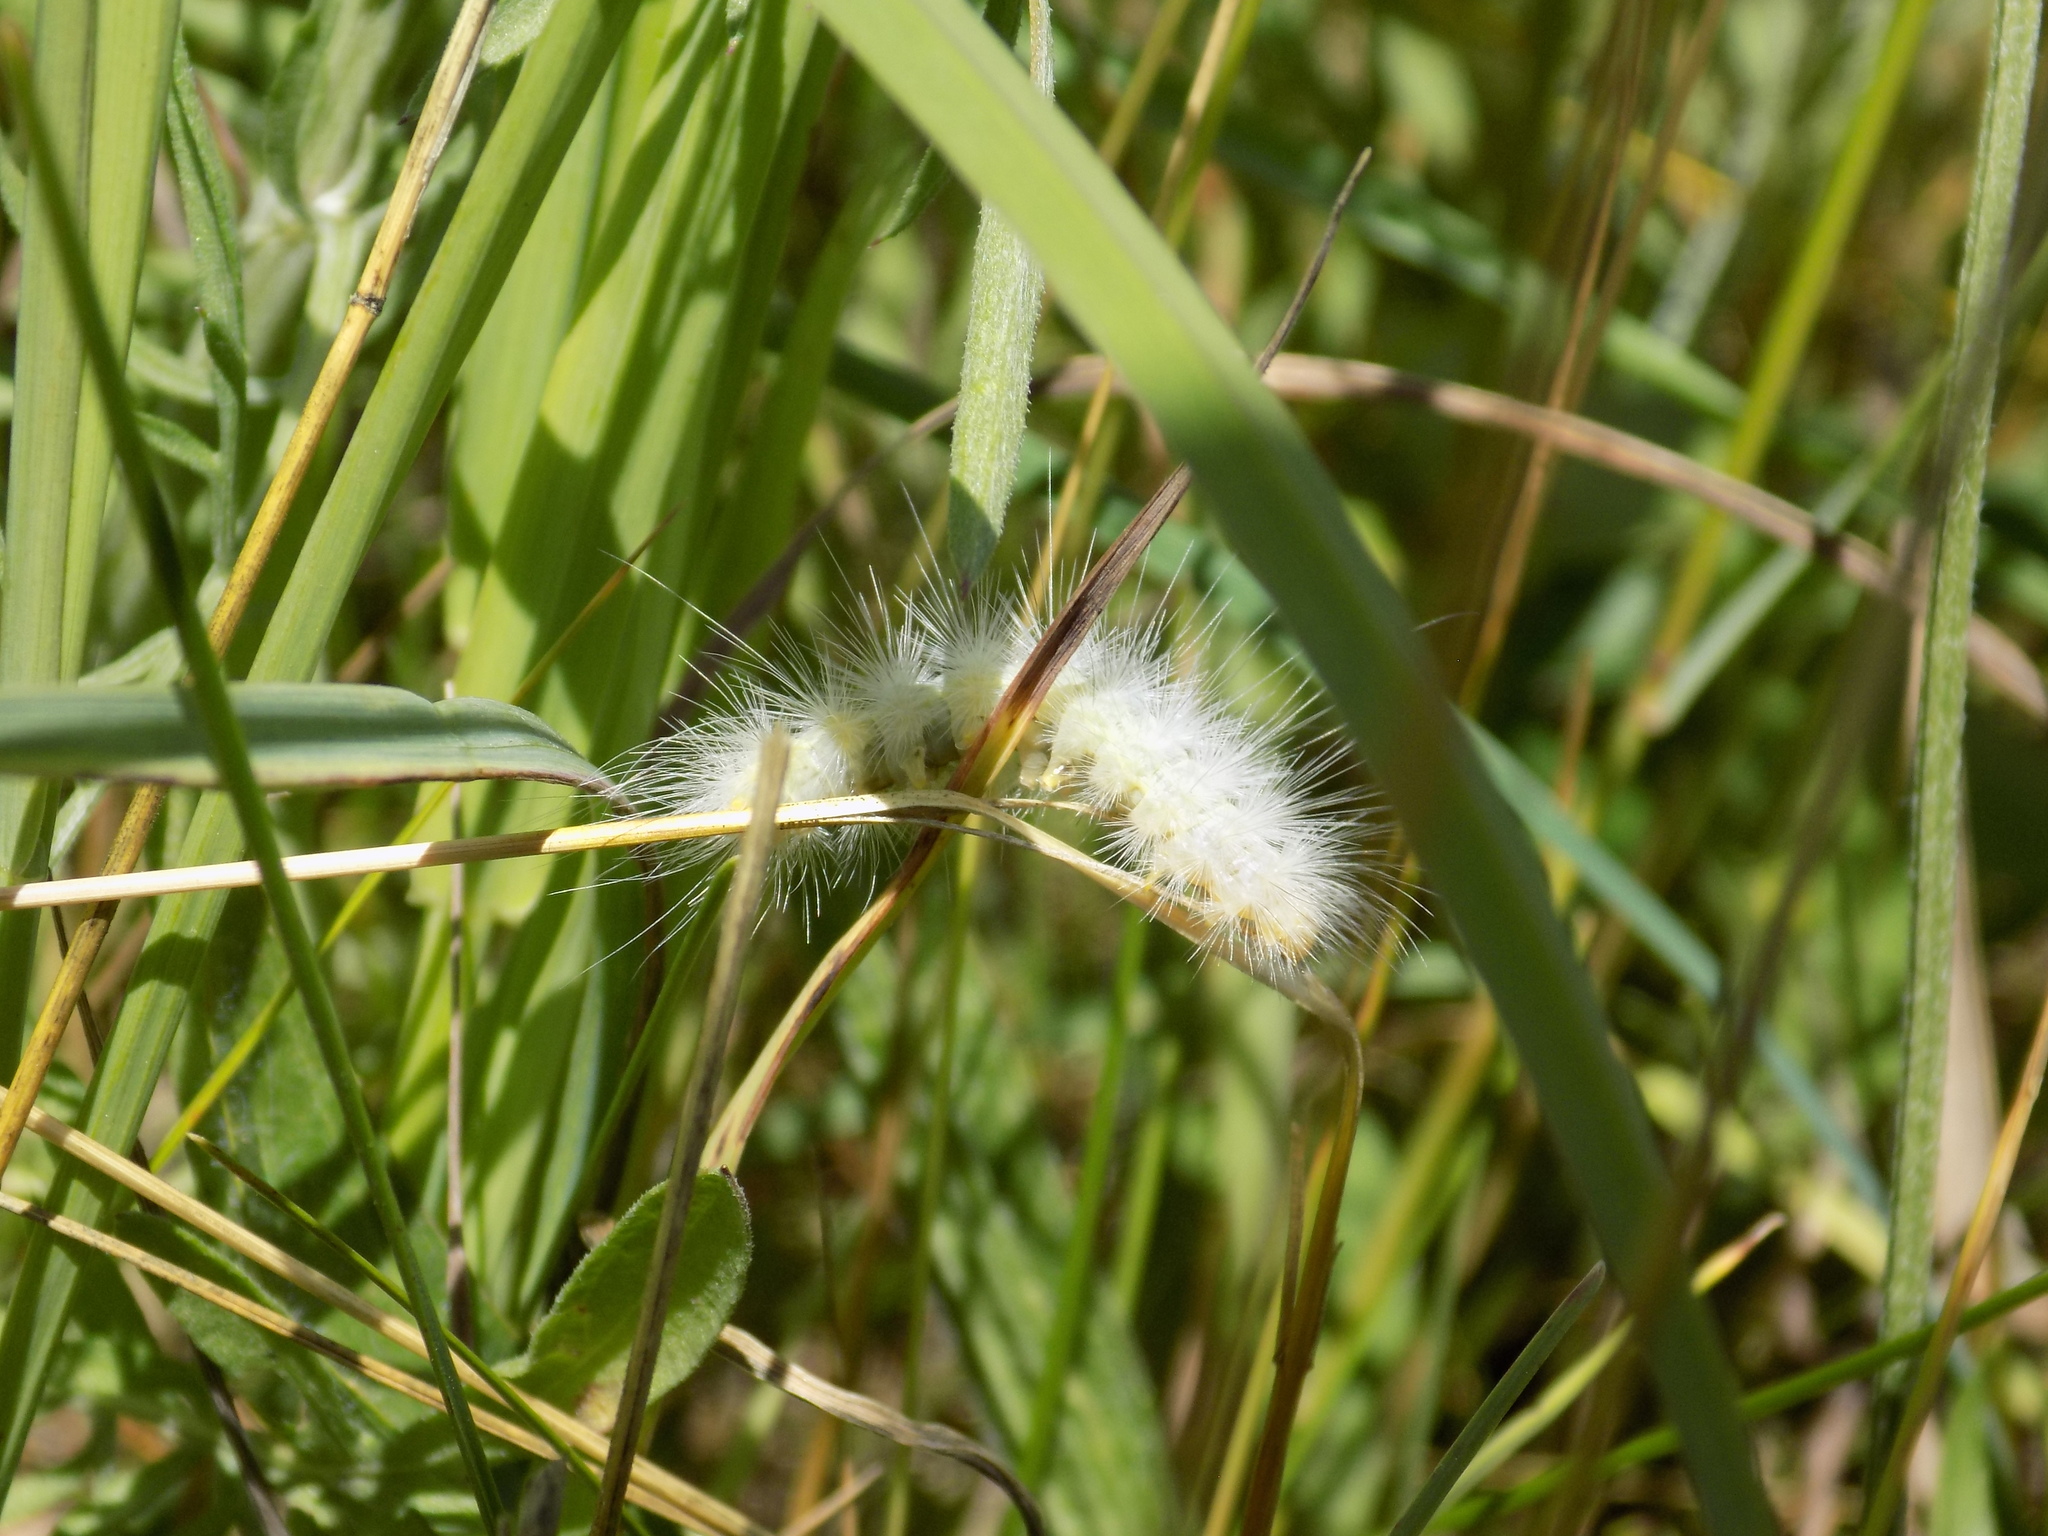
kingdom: Animalia
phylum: Arthropoda
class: Insecta
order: Lepidoptera
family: Erebidae
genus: Spilosoma
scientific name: Spilosoma virginica
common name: Virginia tiger moth
